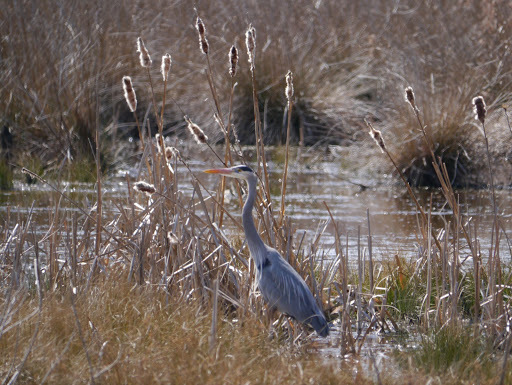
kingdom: Animalia
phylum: Chordata
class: Aves
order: Pelecaniformes
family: Ardeidae
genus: Ardea
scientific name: Ardea herodias
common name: Great blue heron
